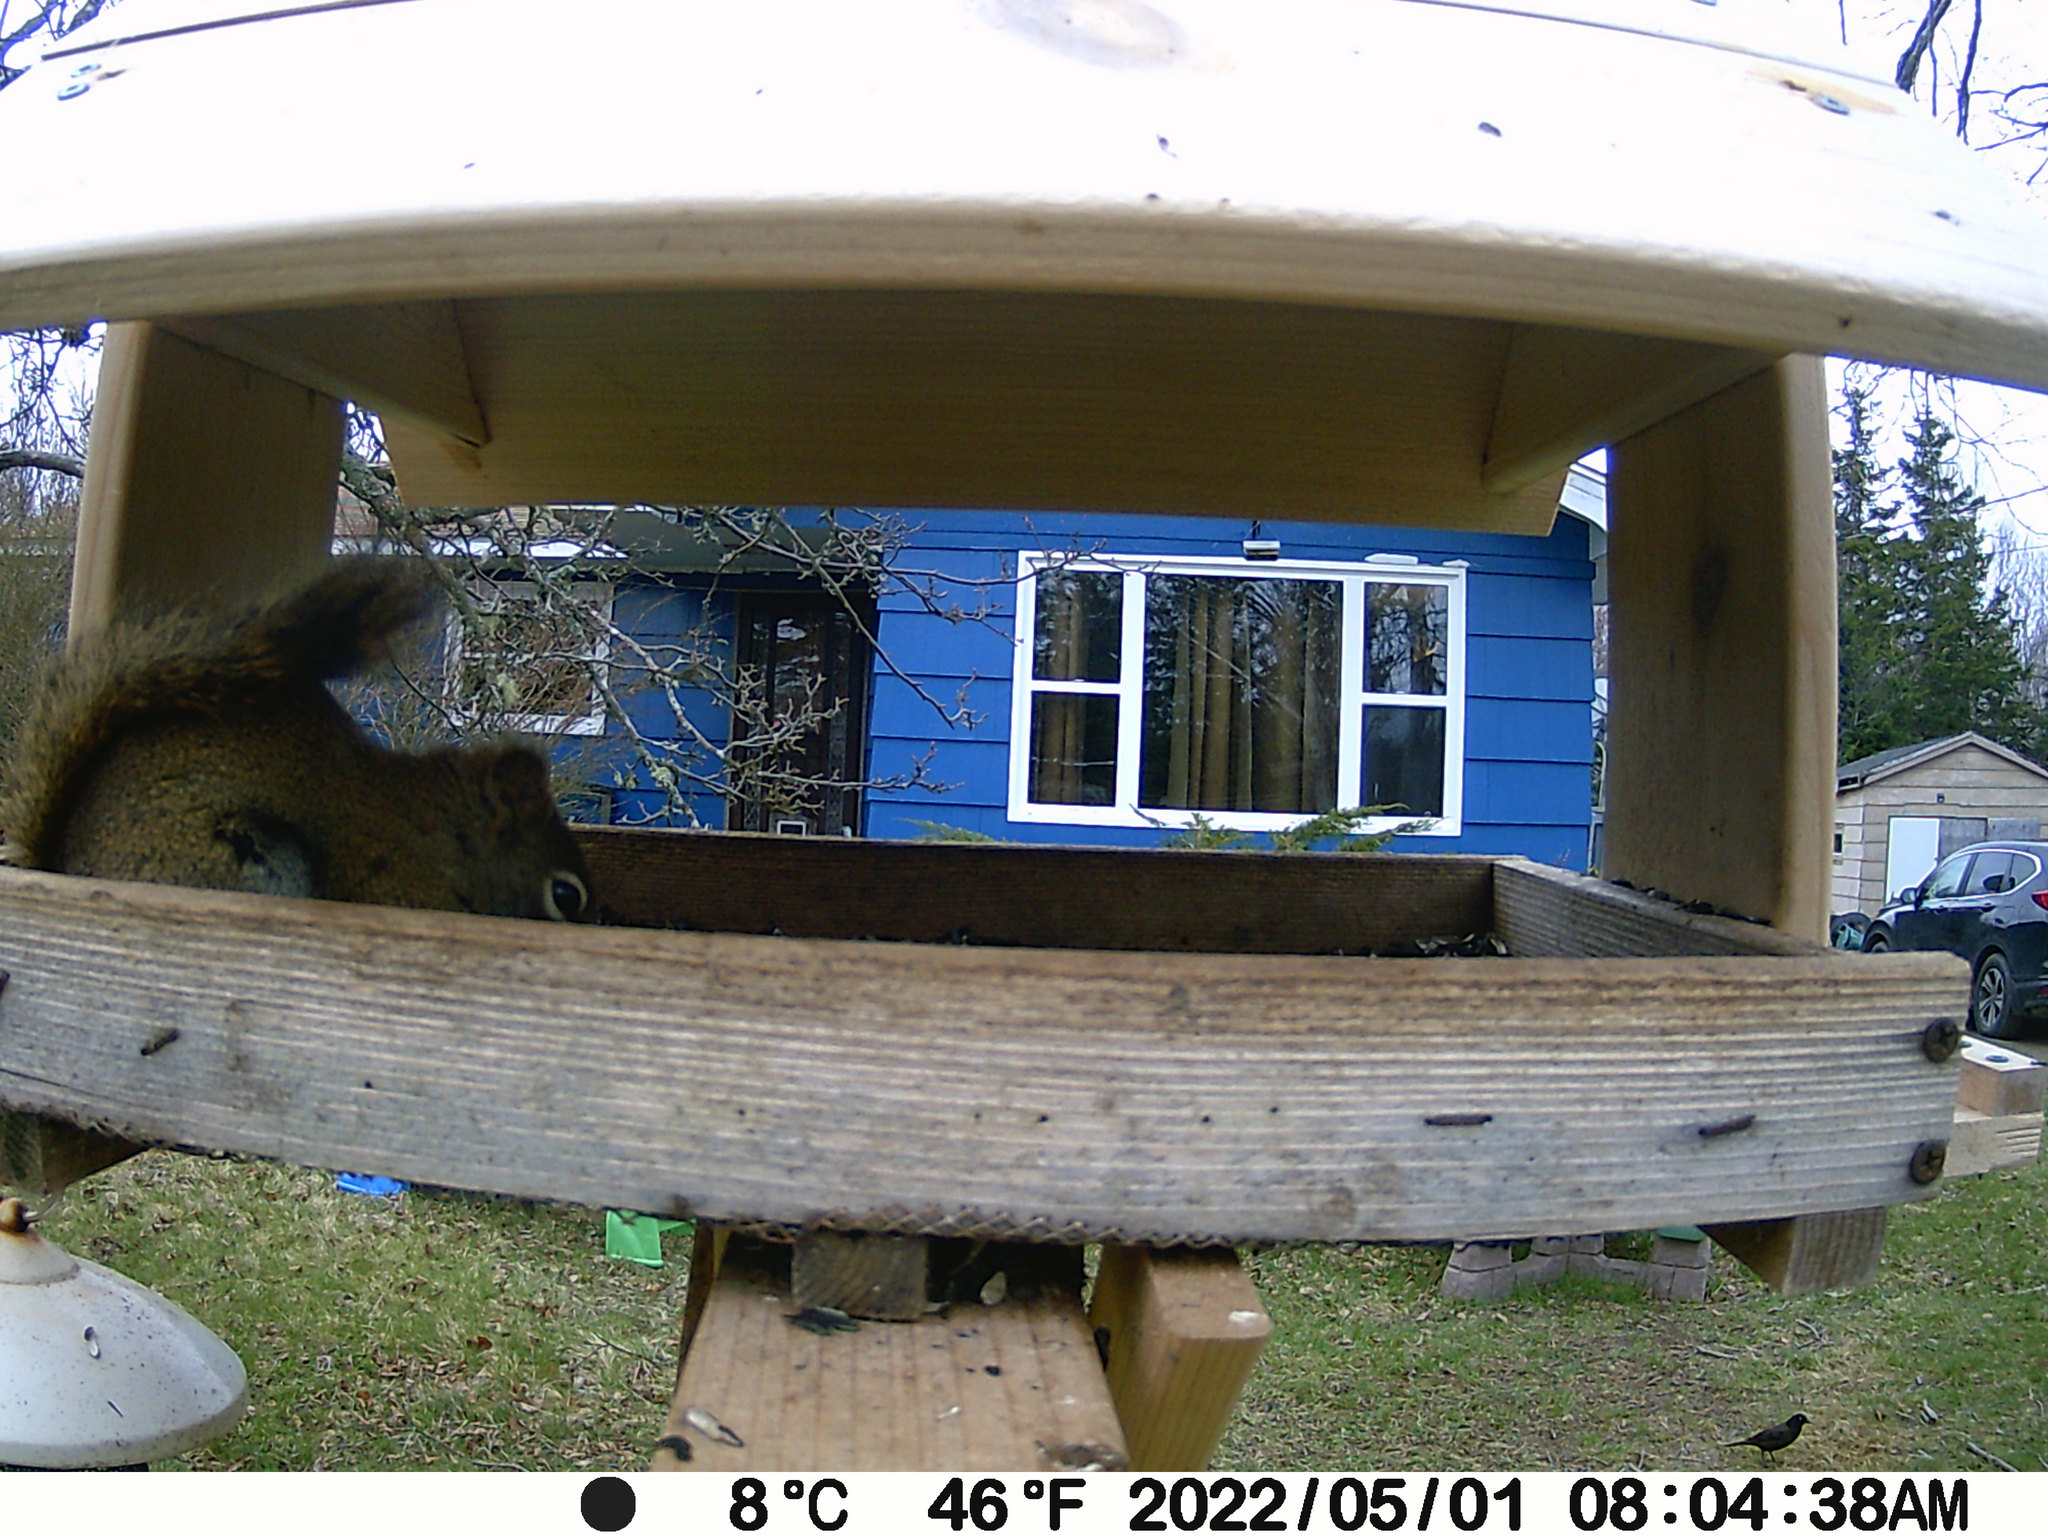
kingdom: Animalia
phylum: Chordata
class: Aves
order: Passeriformes
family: Icteridae
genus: Quiscalus
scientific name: Quiscalus quiscula
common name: Common grackle
